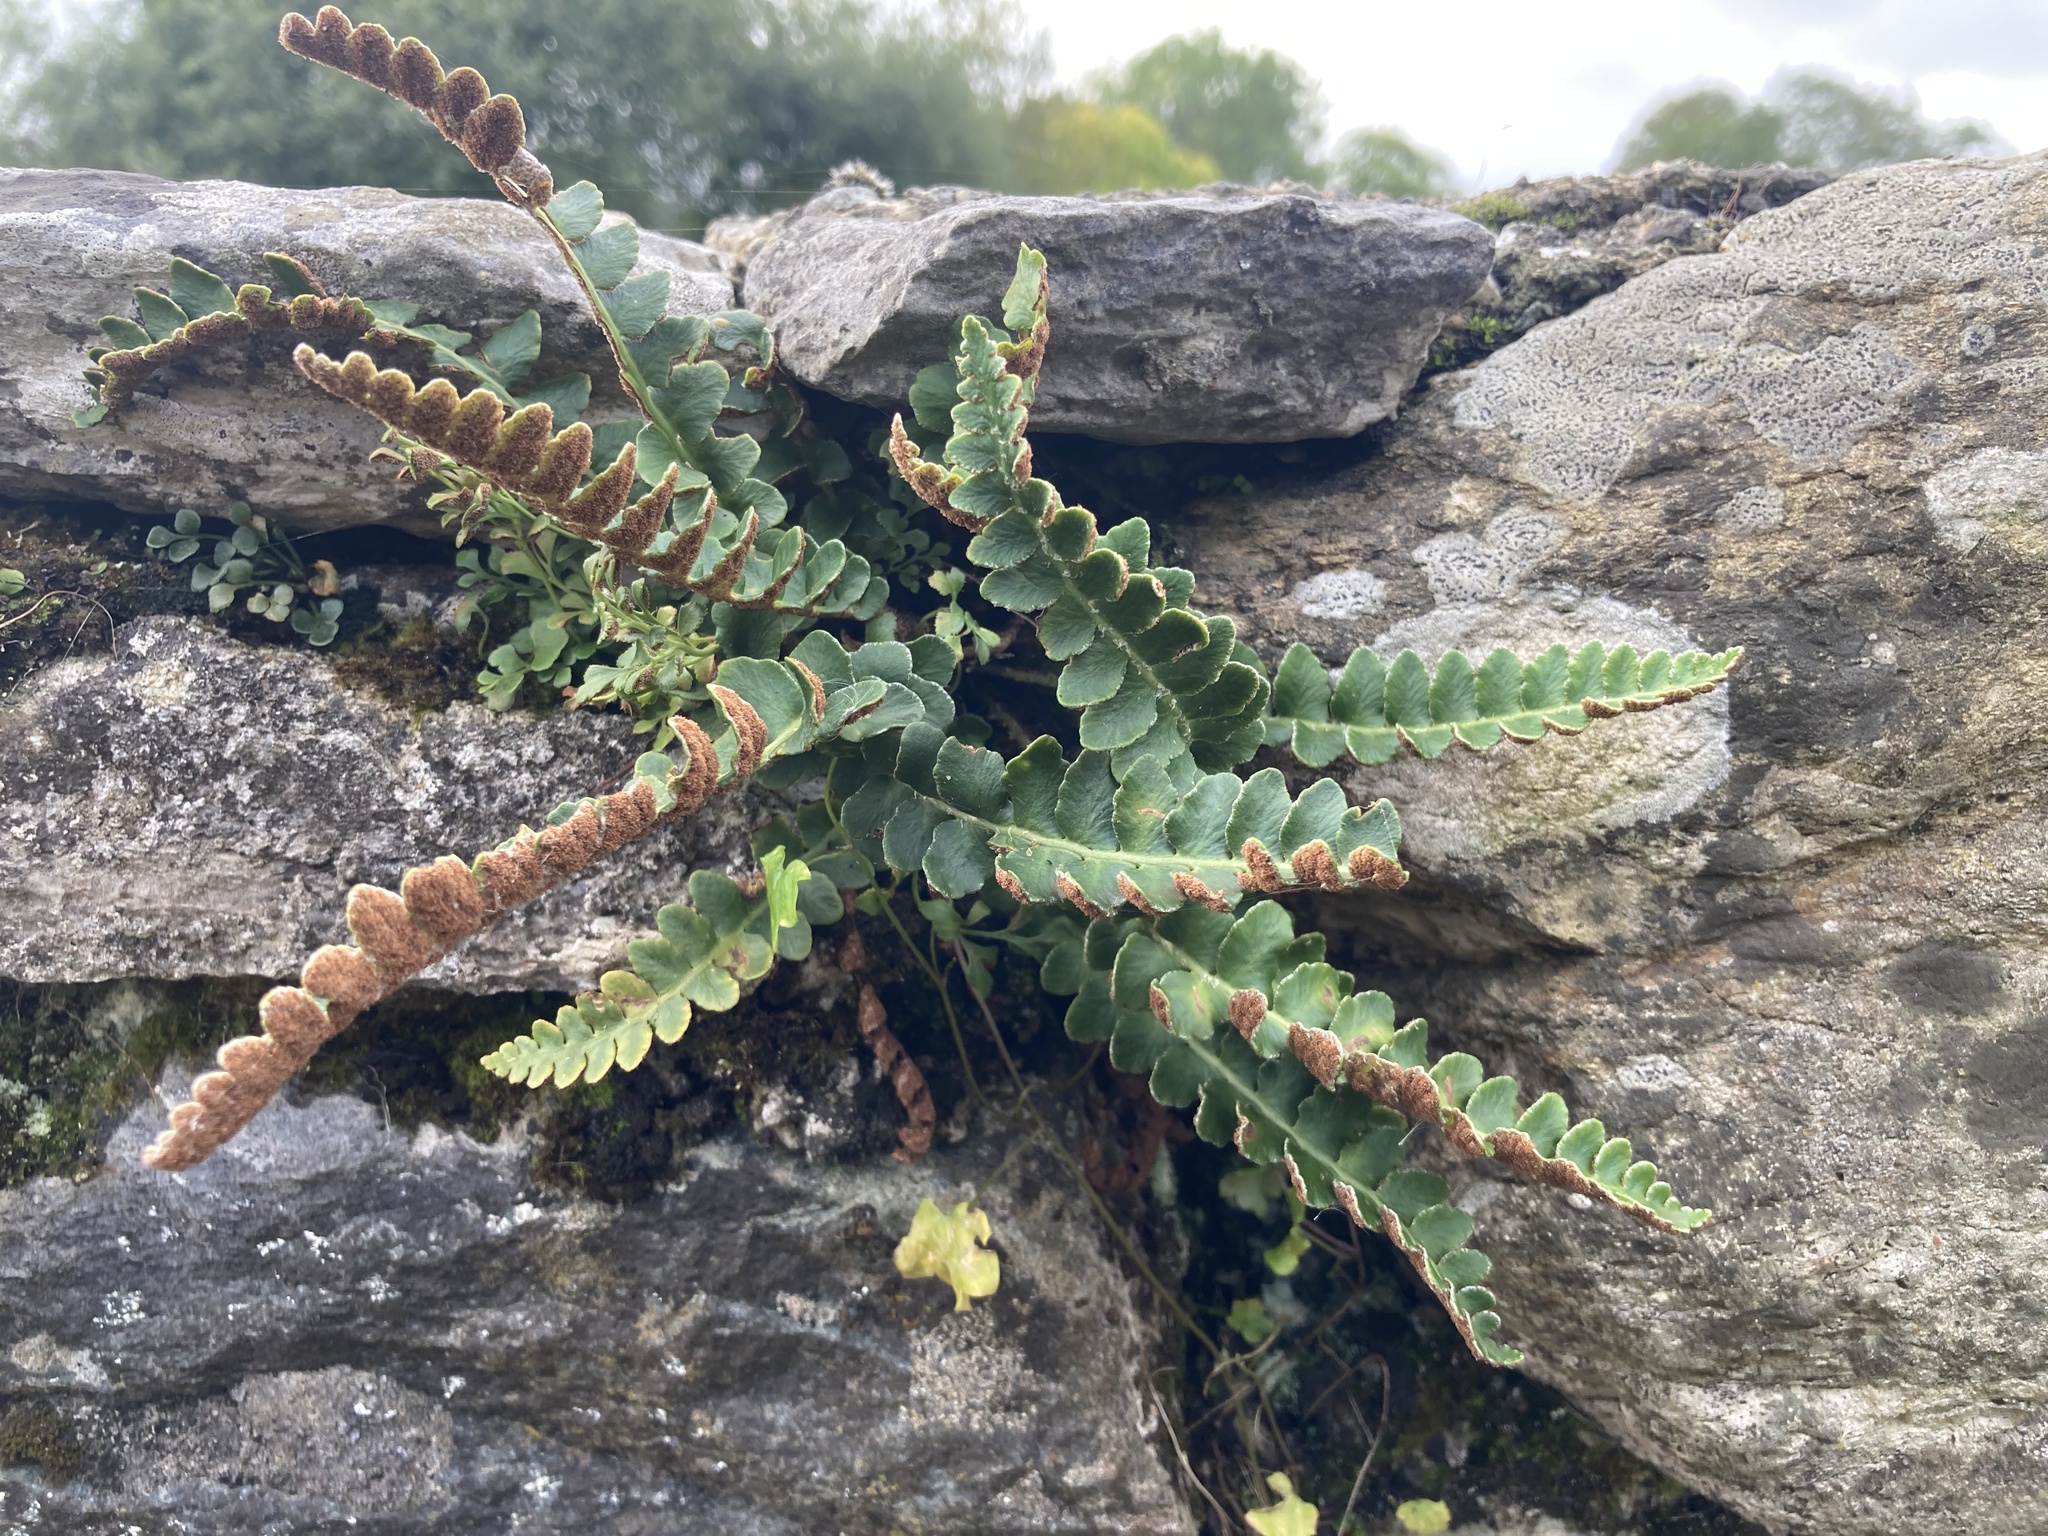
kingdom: Plantae
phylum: Tracheophyta
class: Polypodiopsida
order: Polypodiales
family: Aspleniaceae
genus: Asplenium
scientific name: Asplenium ceterach
